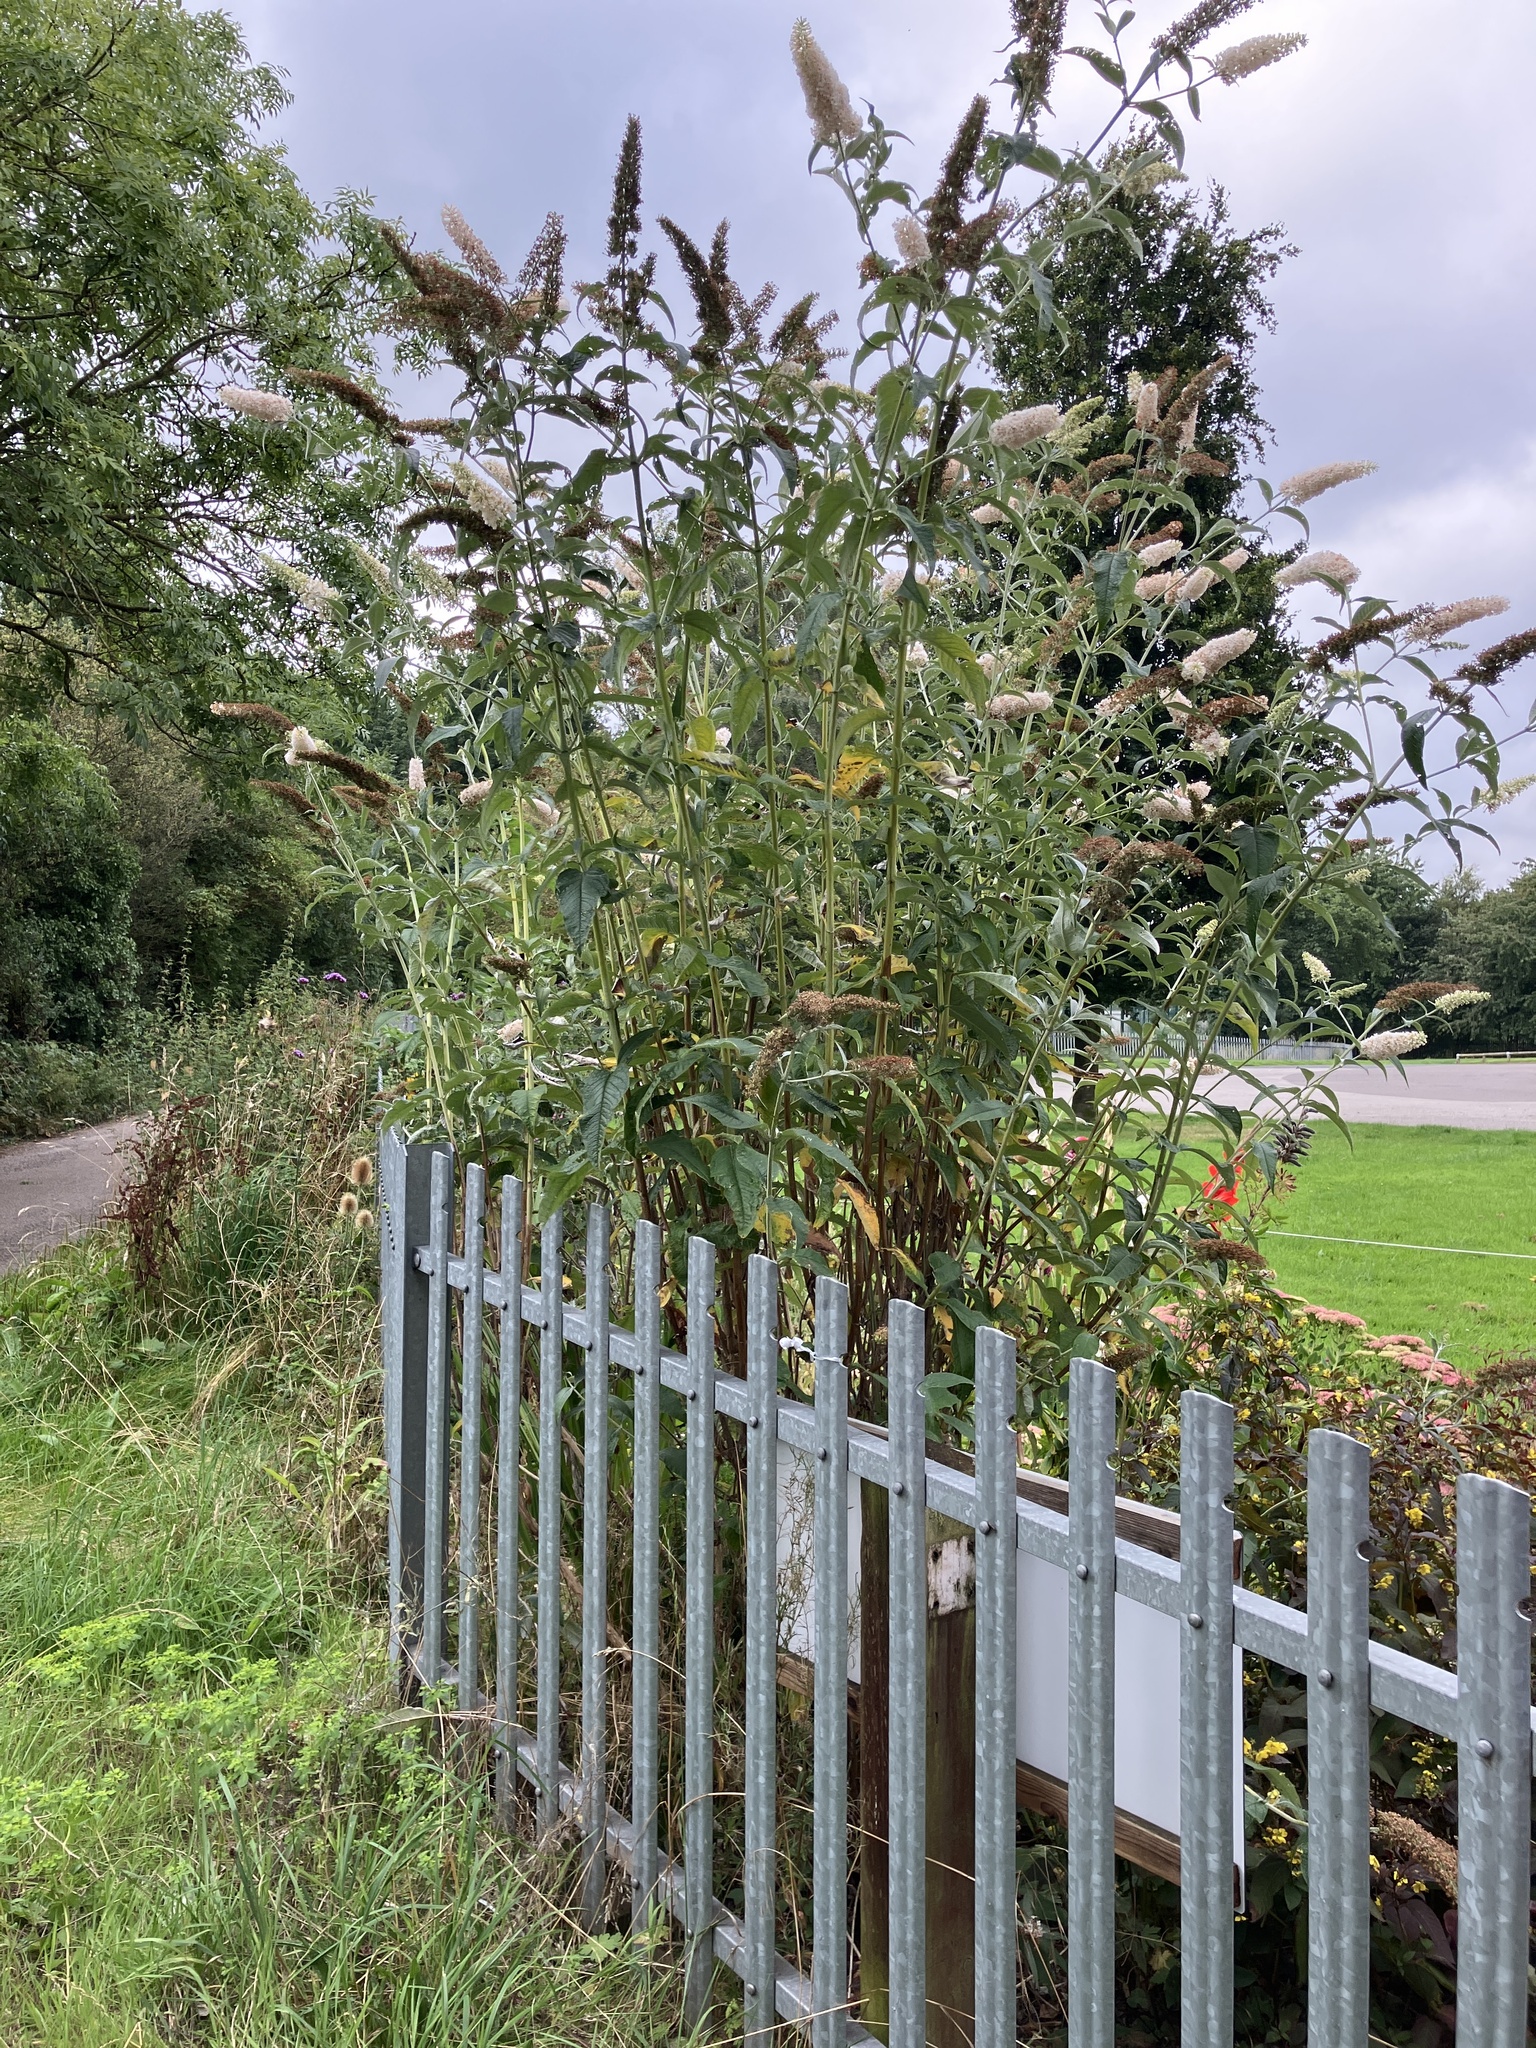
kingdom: Plantae
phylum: Tracheophyta
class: Magnoliopsida
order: Lamiales
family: Scrophulariaceae
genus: Buddleja
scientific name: Buddleja davidii
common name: Butterfly-bush
